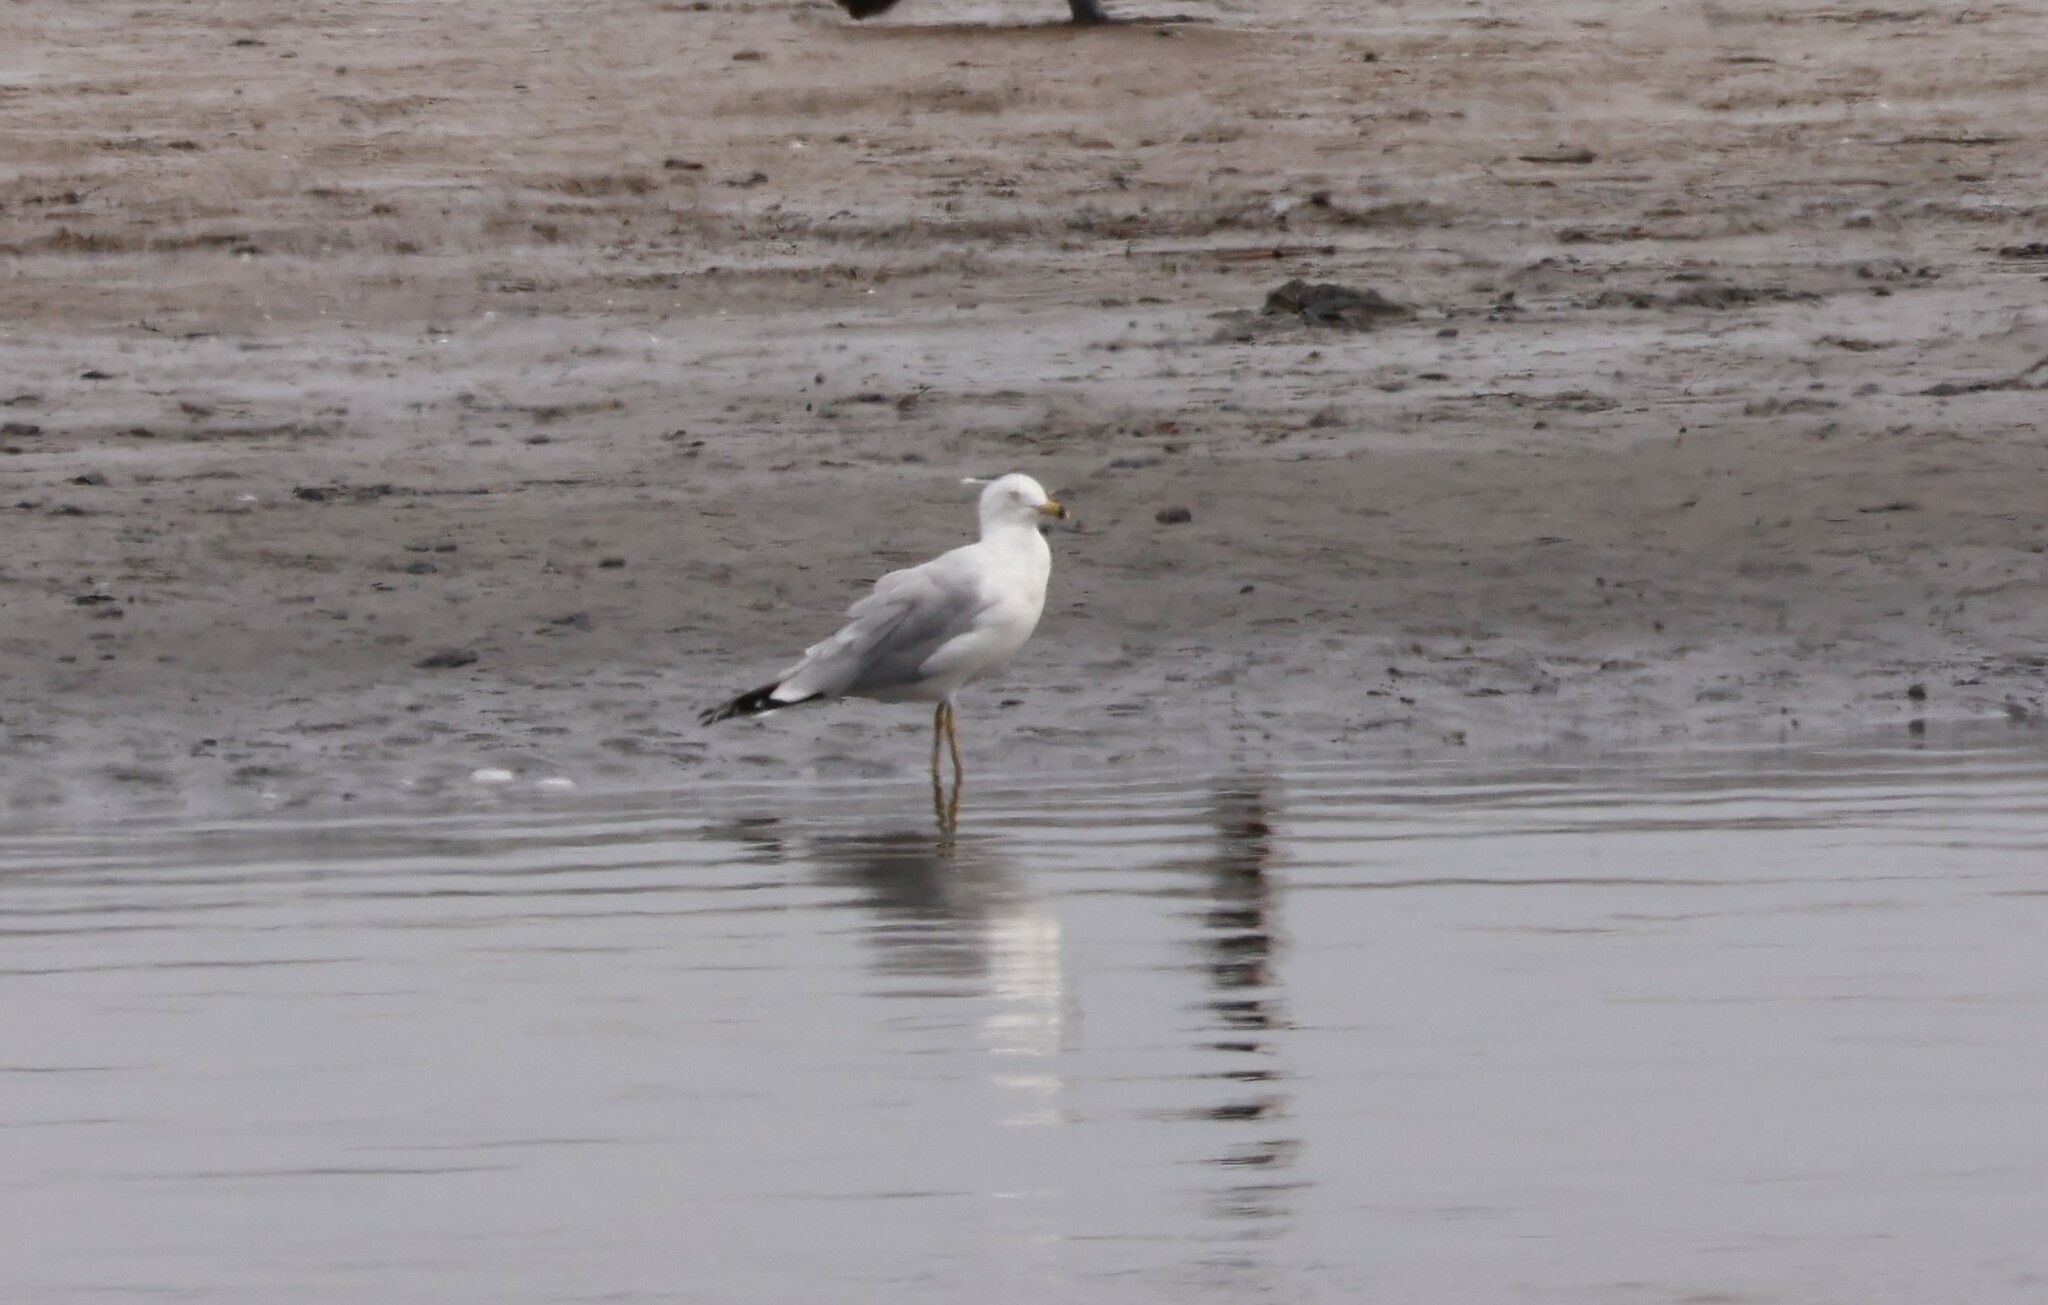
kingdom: Animalia
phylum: Chordata
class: Aves
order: Charadriiformes
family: Laridae
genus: Larus
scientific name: Larus delawarensis
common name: Ring-billed gull
